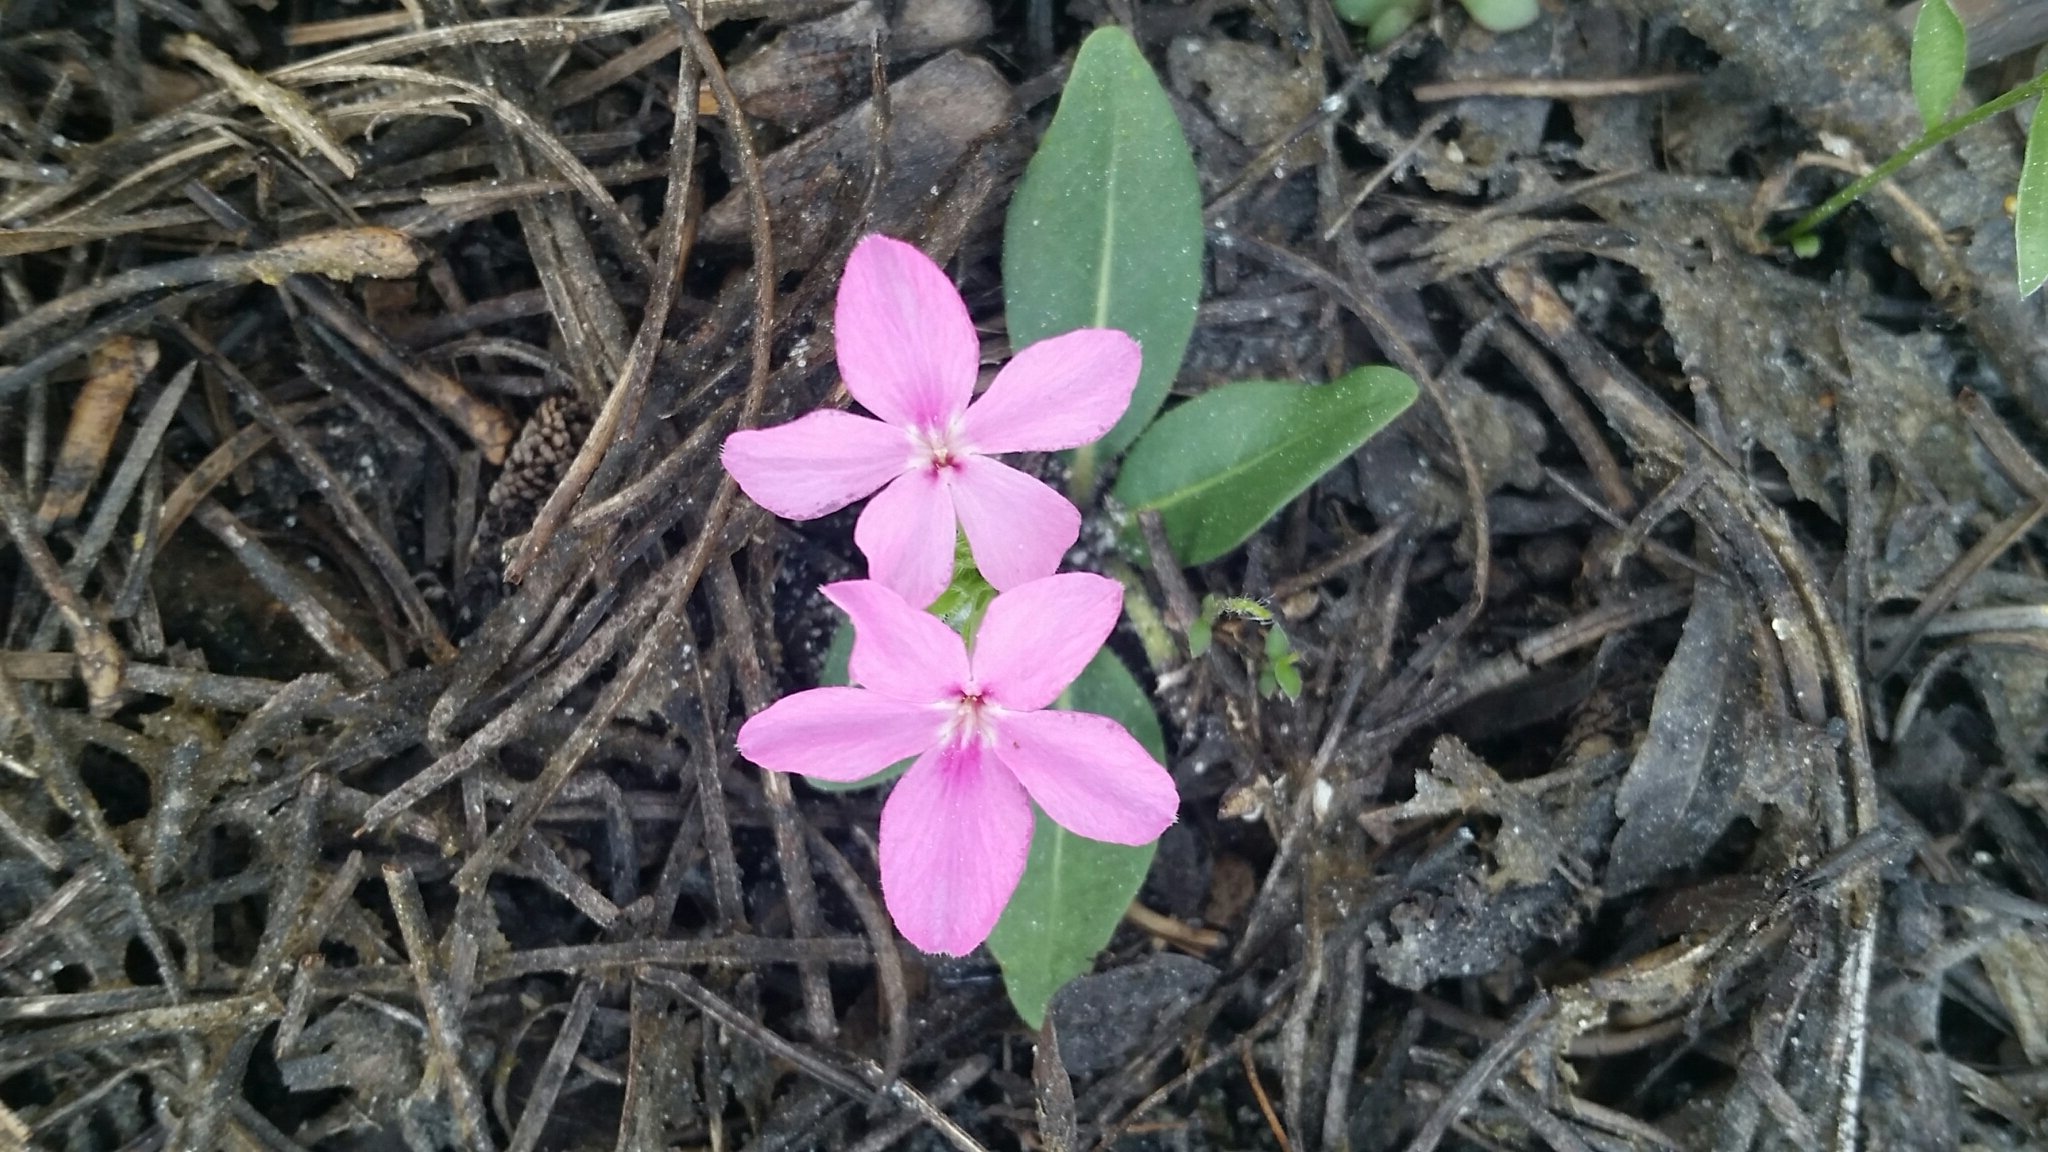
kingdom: Plantae
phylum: Tracheophyta
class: Magnoliopsida
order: Lamiales
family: Acanthaceae
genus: Stenandrium
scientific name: Stenandrium dulce
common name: Pinklet
